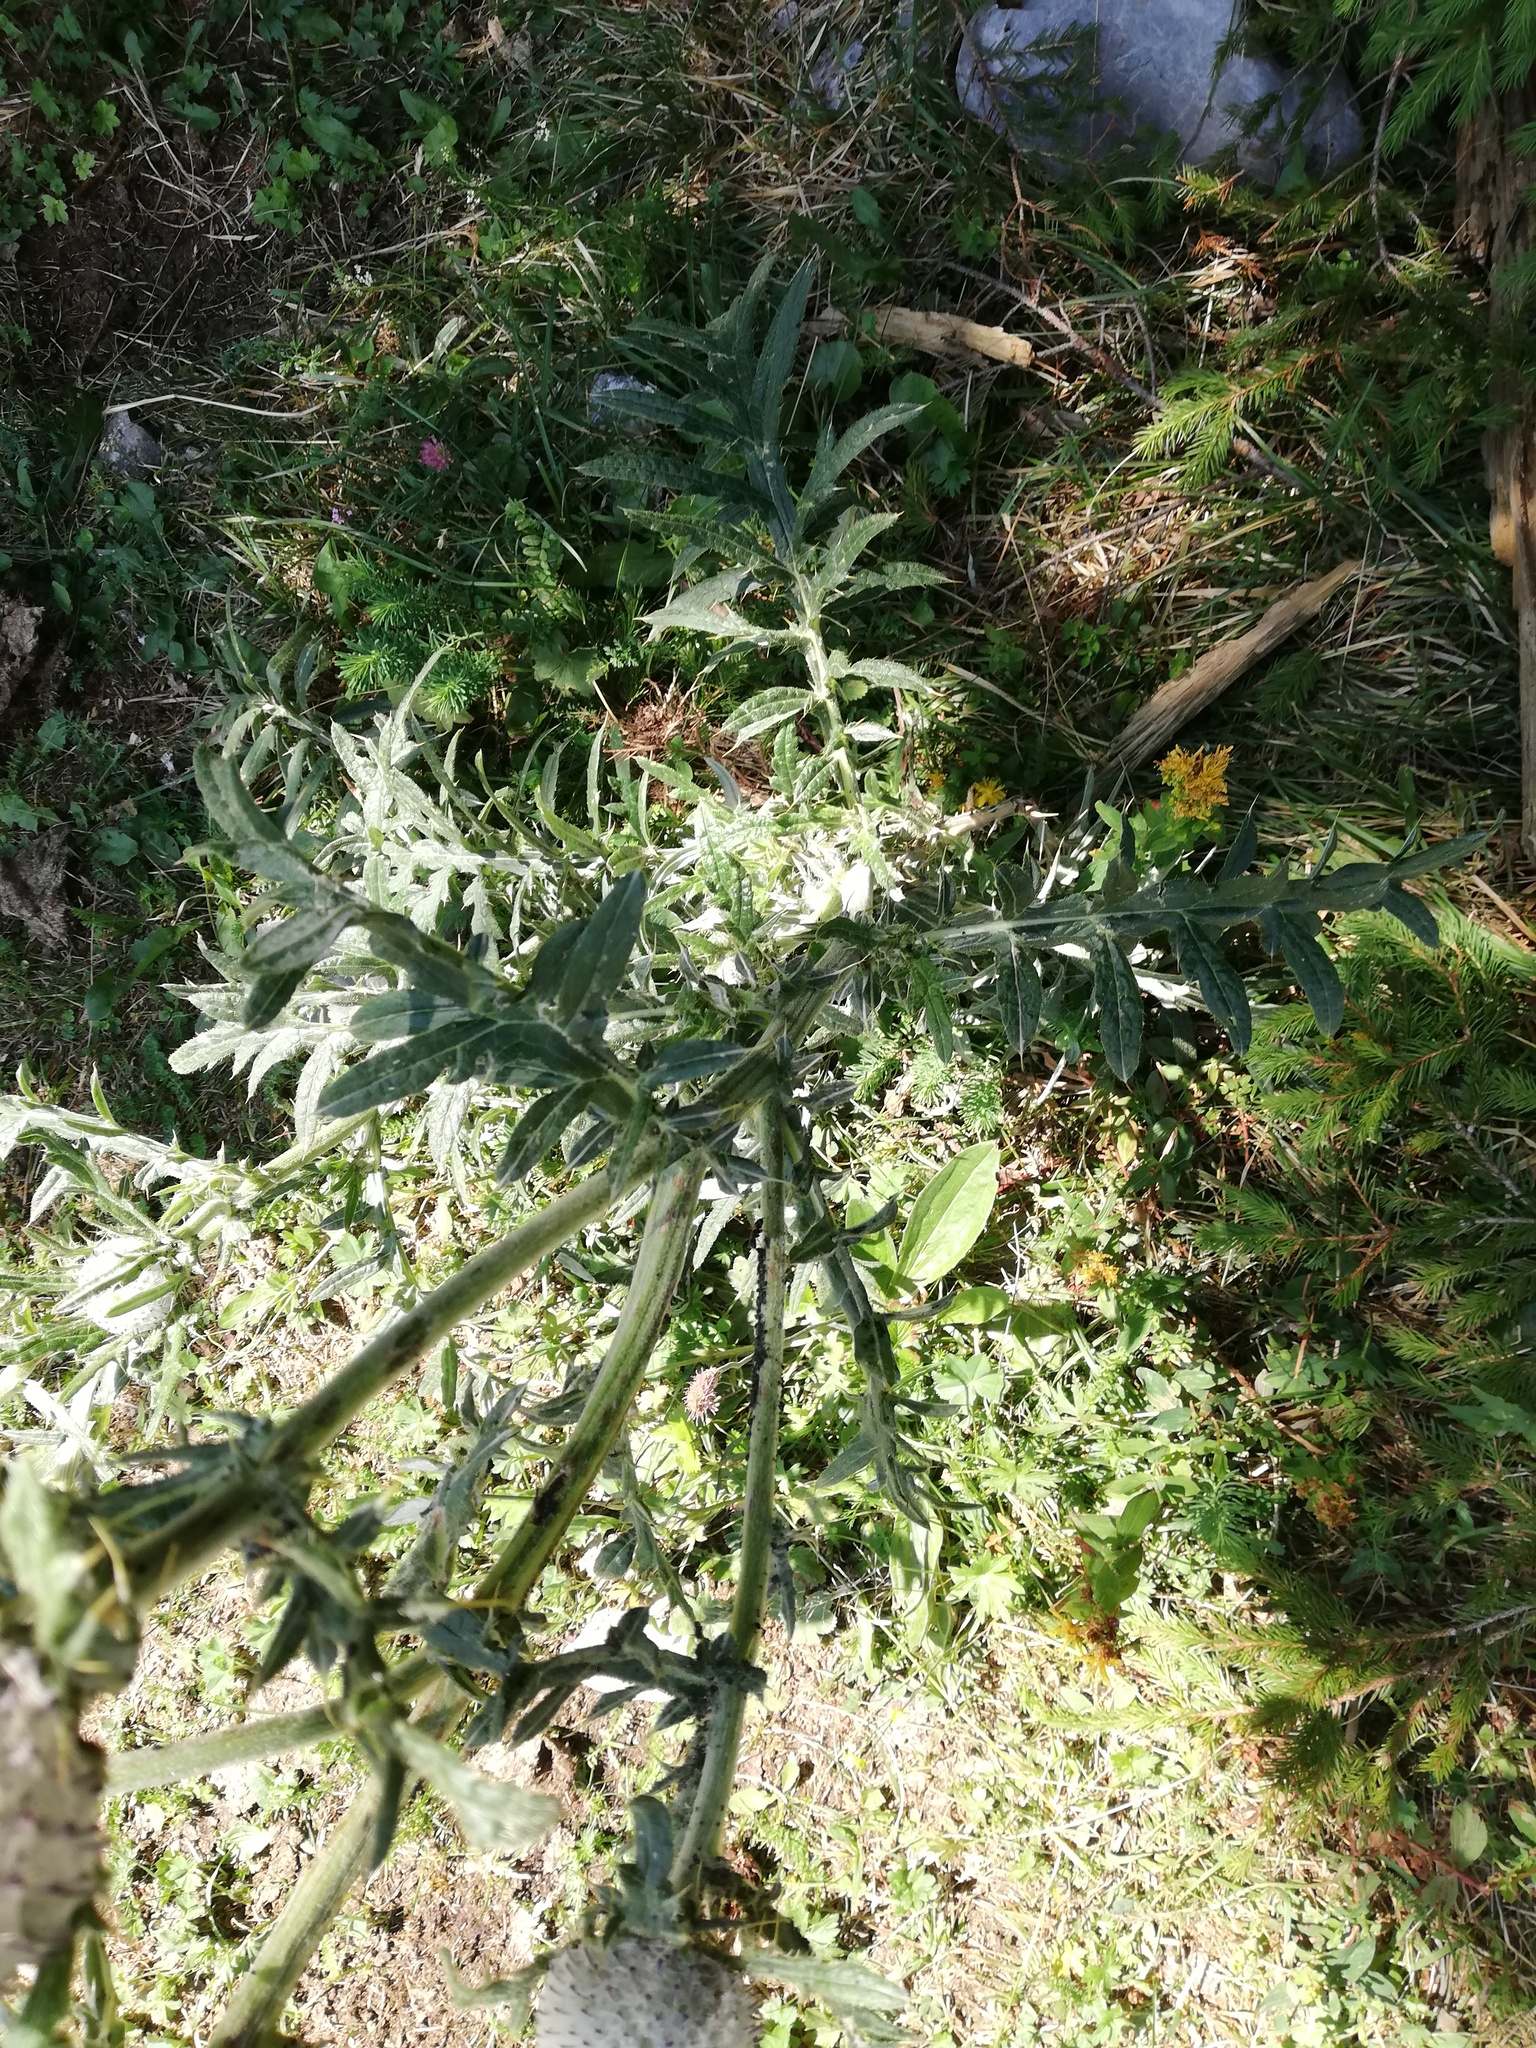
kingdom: Plantae
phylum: Tracheophyta
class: Magnoliopsida
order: Asterales
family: Asteraceae
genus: Lophiolepis
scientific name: Lophiolepis eriophora
